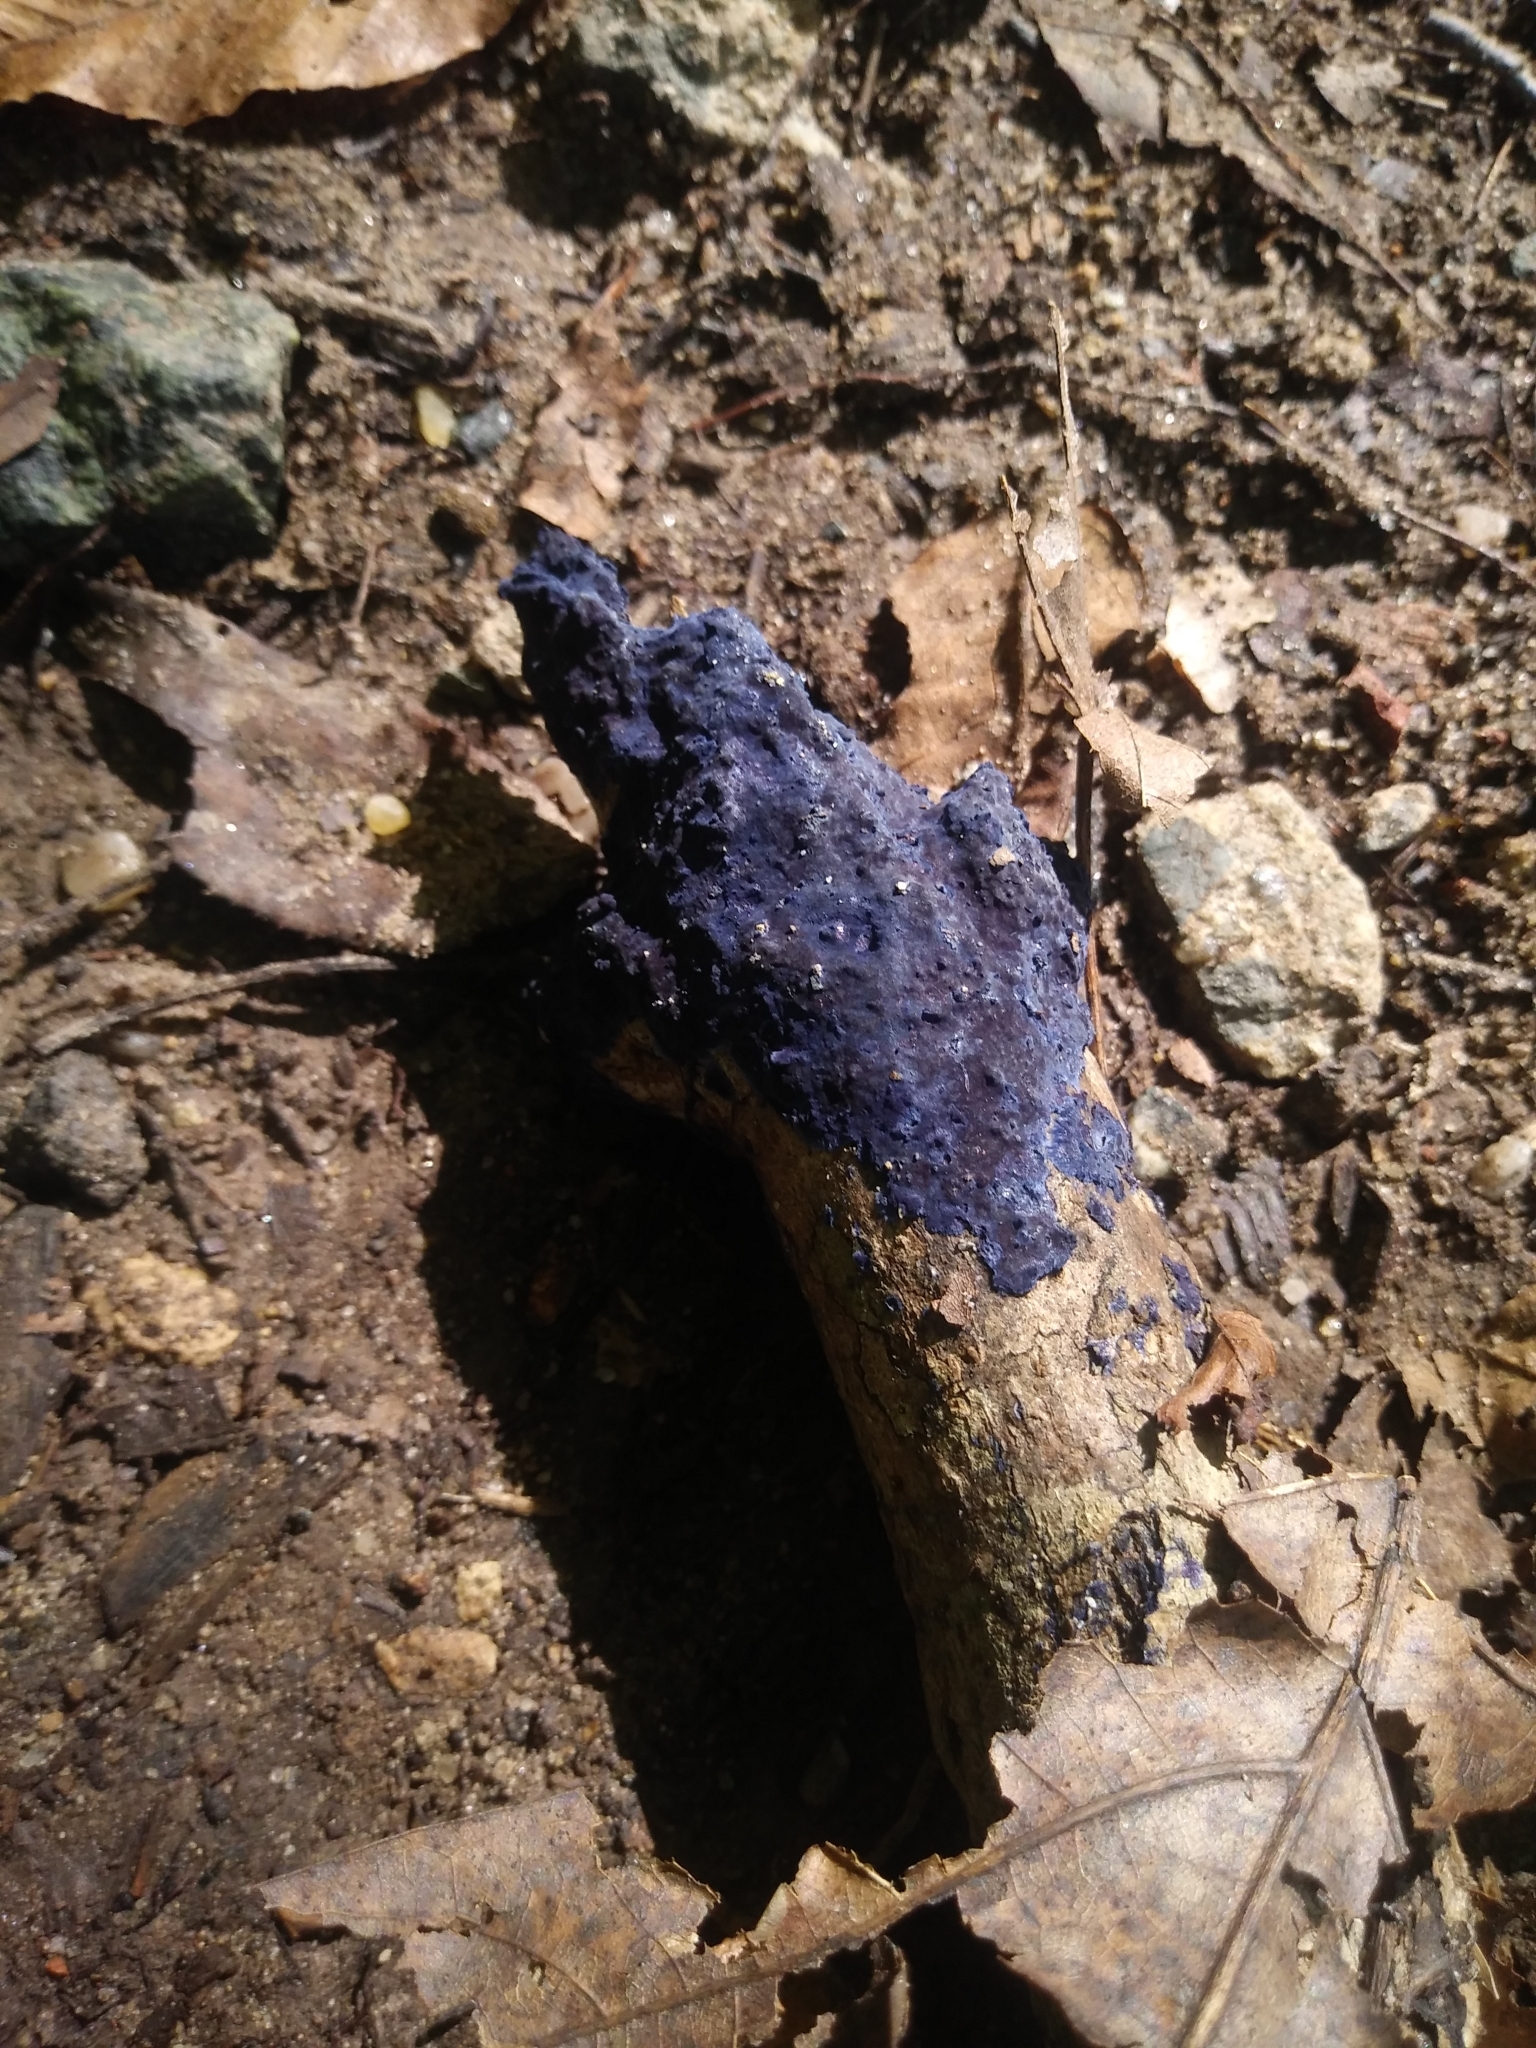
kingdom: Fungi
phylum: Basidiomycota
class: Agaricomycetes
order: Polyporales
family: Phanerochaetaceae
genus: Terana
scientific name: Terana coerulea
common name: Cobalt crust
